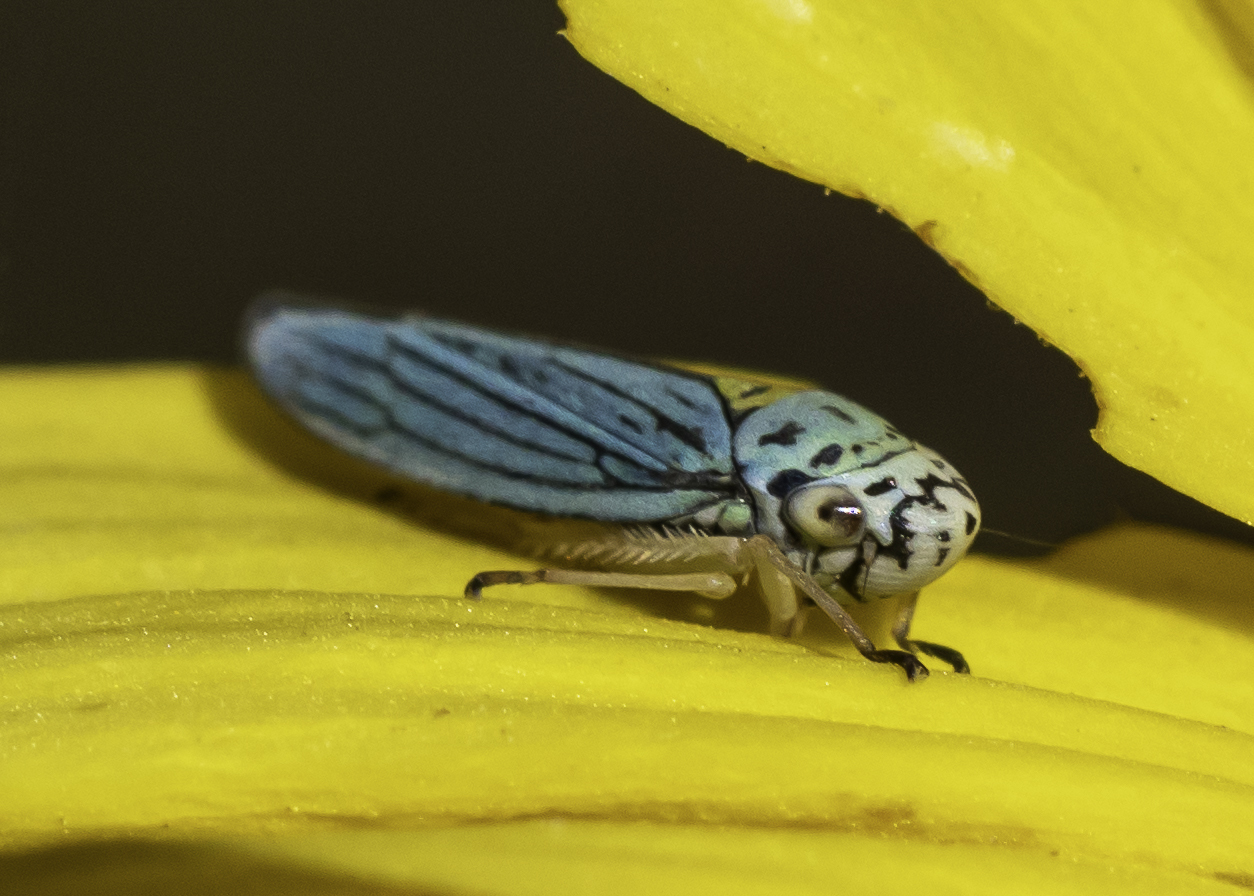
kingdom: Animalia
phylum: Arthropoda
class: Insecta
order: Hemiptera
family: Cicadellidae
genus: Graphocephala
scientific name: Graphocephala atropunctata
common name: Blue-green sharpshooter
